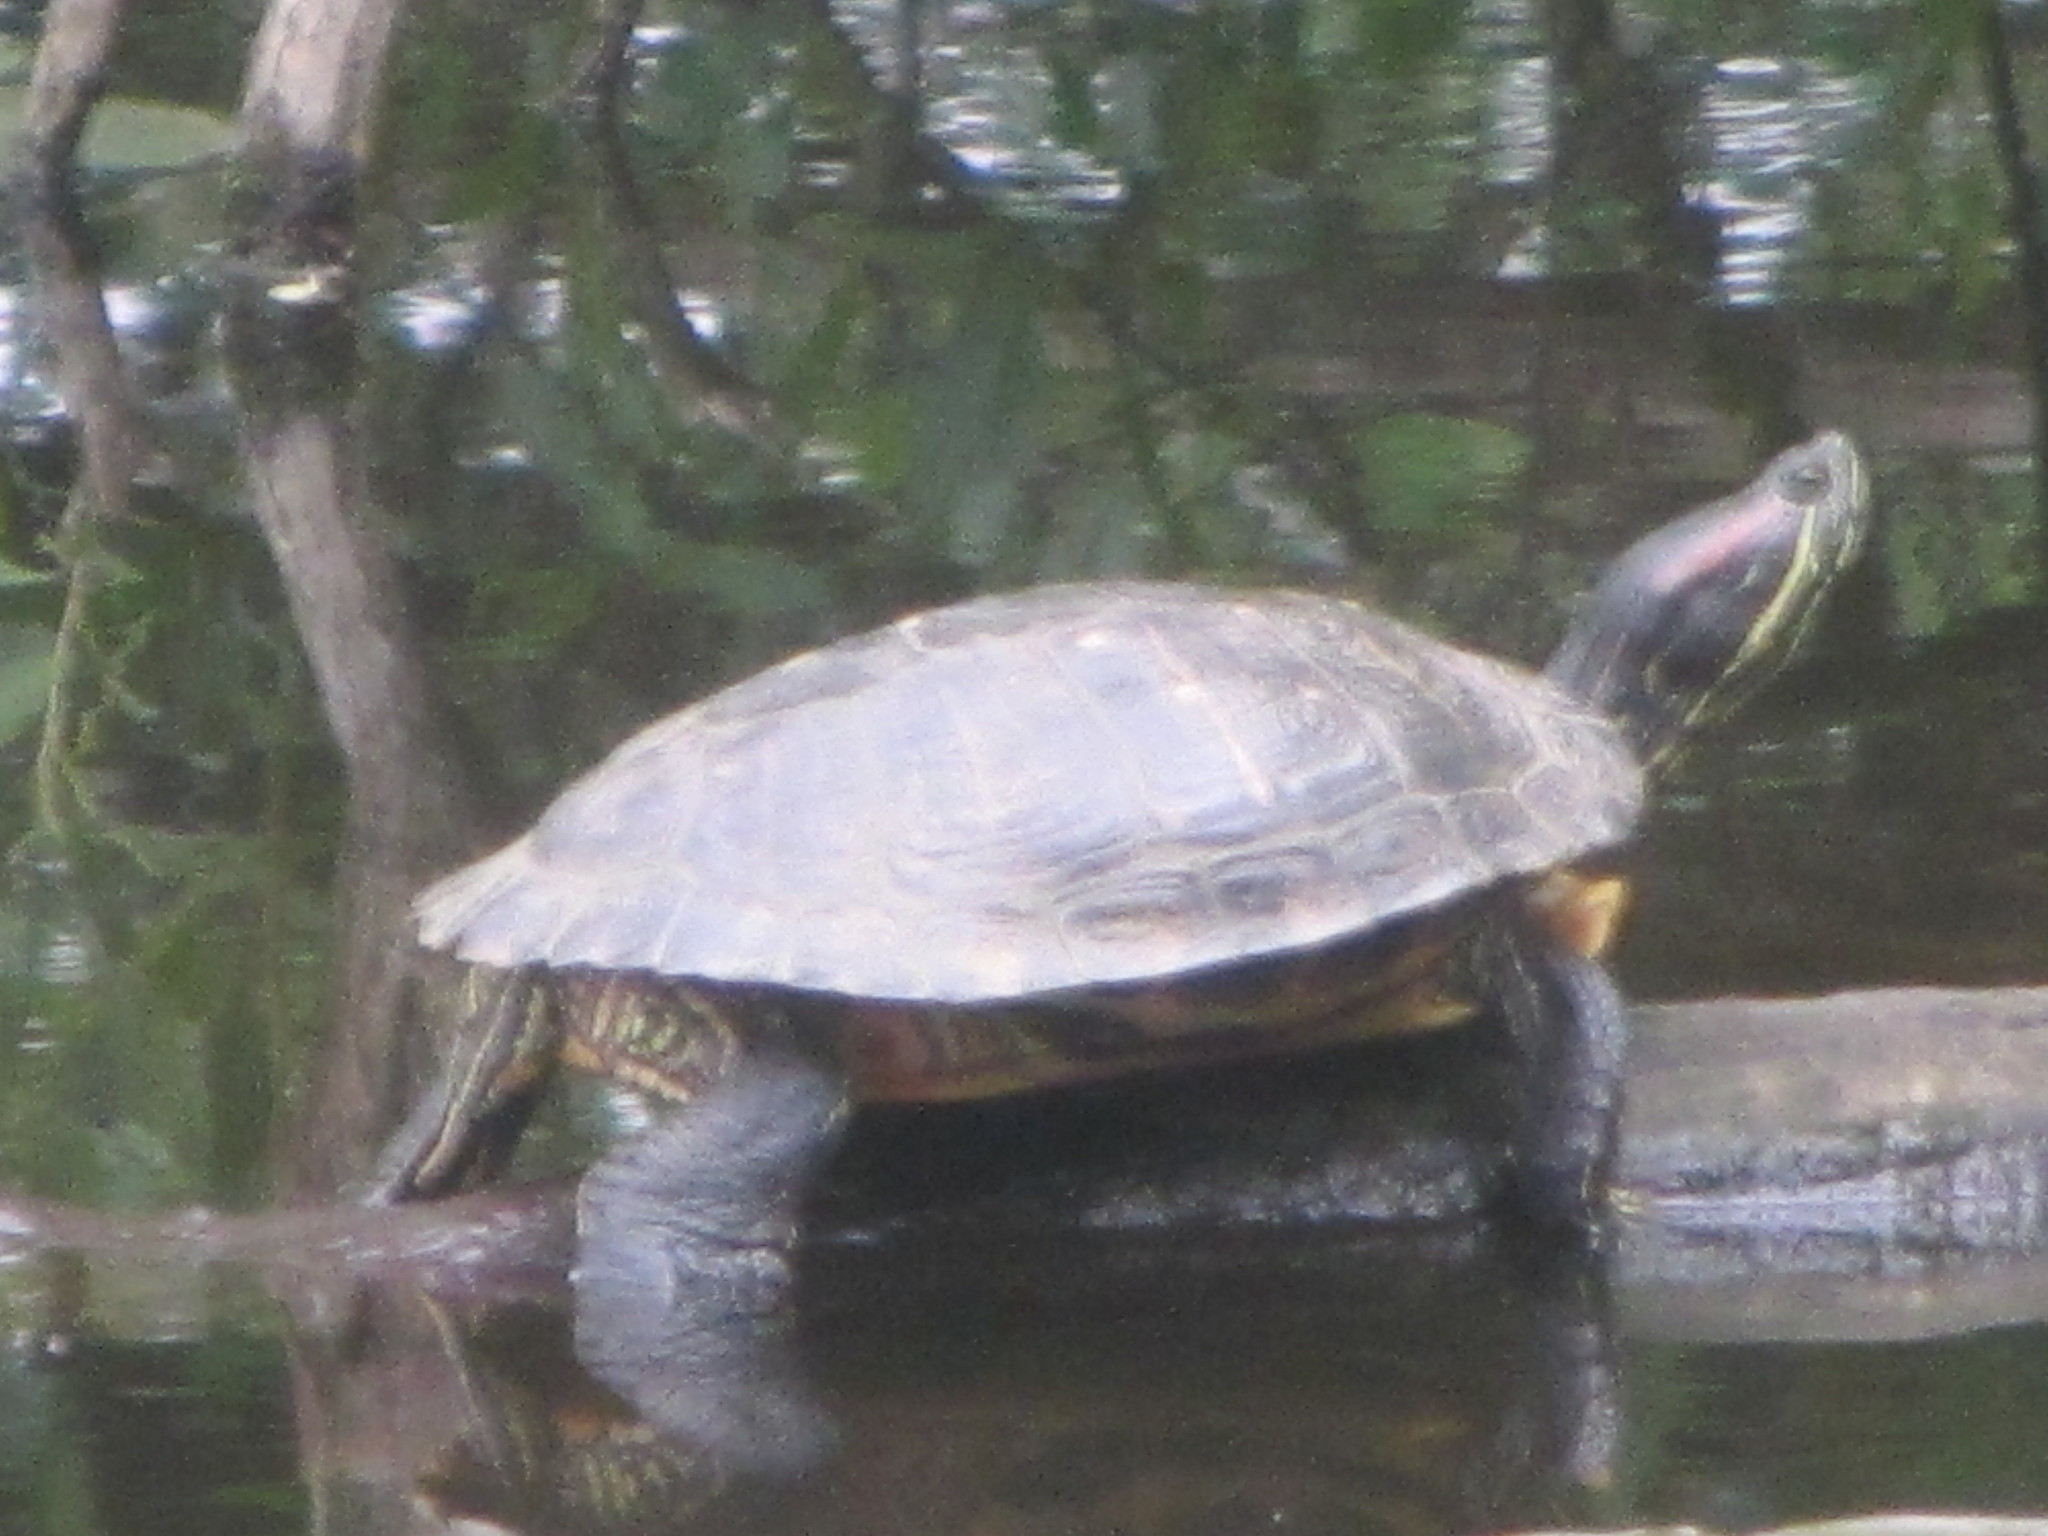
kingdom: Animalia
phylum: Chordata
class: Testudines
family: Emydidae
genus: Trachemys
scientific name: Trachemys scripta
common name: Slider
